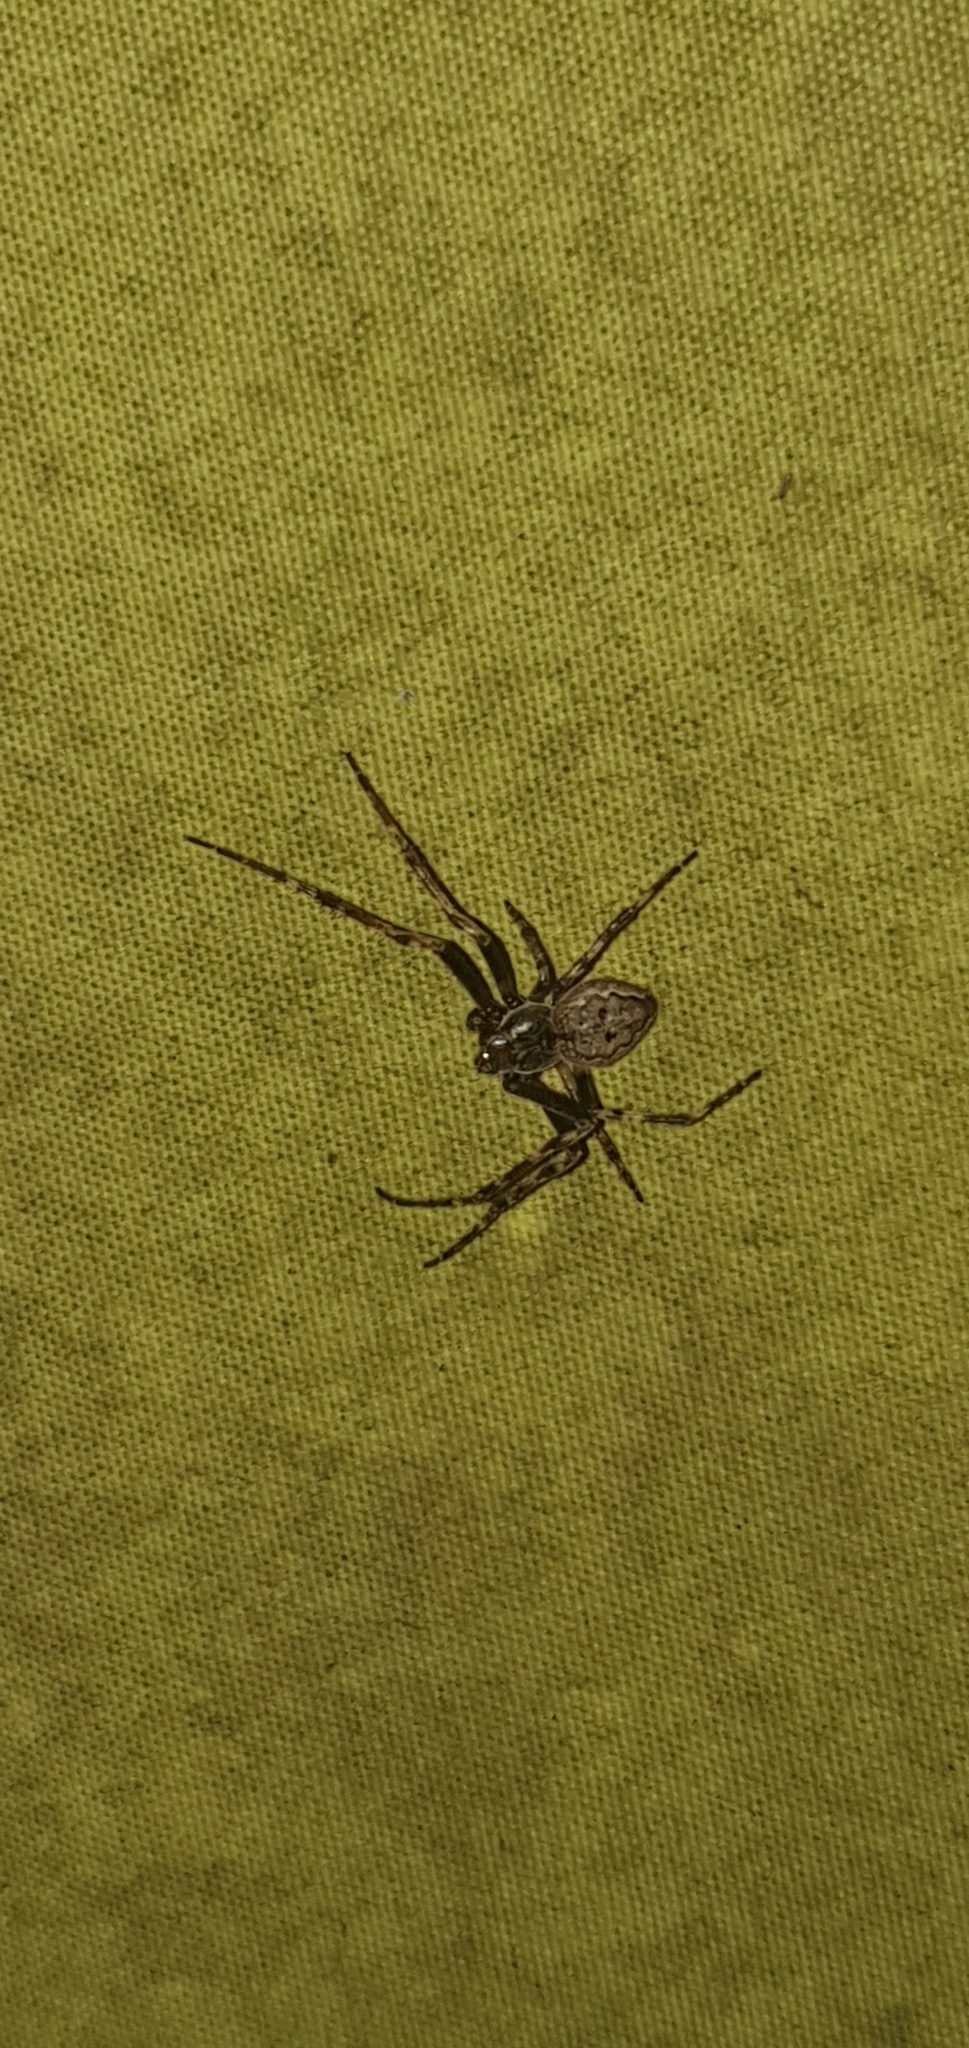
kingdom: Animalia
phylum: Arthropoda
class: Arachnida
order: Araneae
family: Araneidae
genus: Nuctenea
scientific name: Nuctenea umbratica
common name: Toad spider
